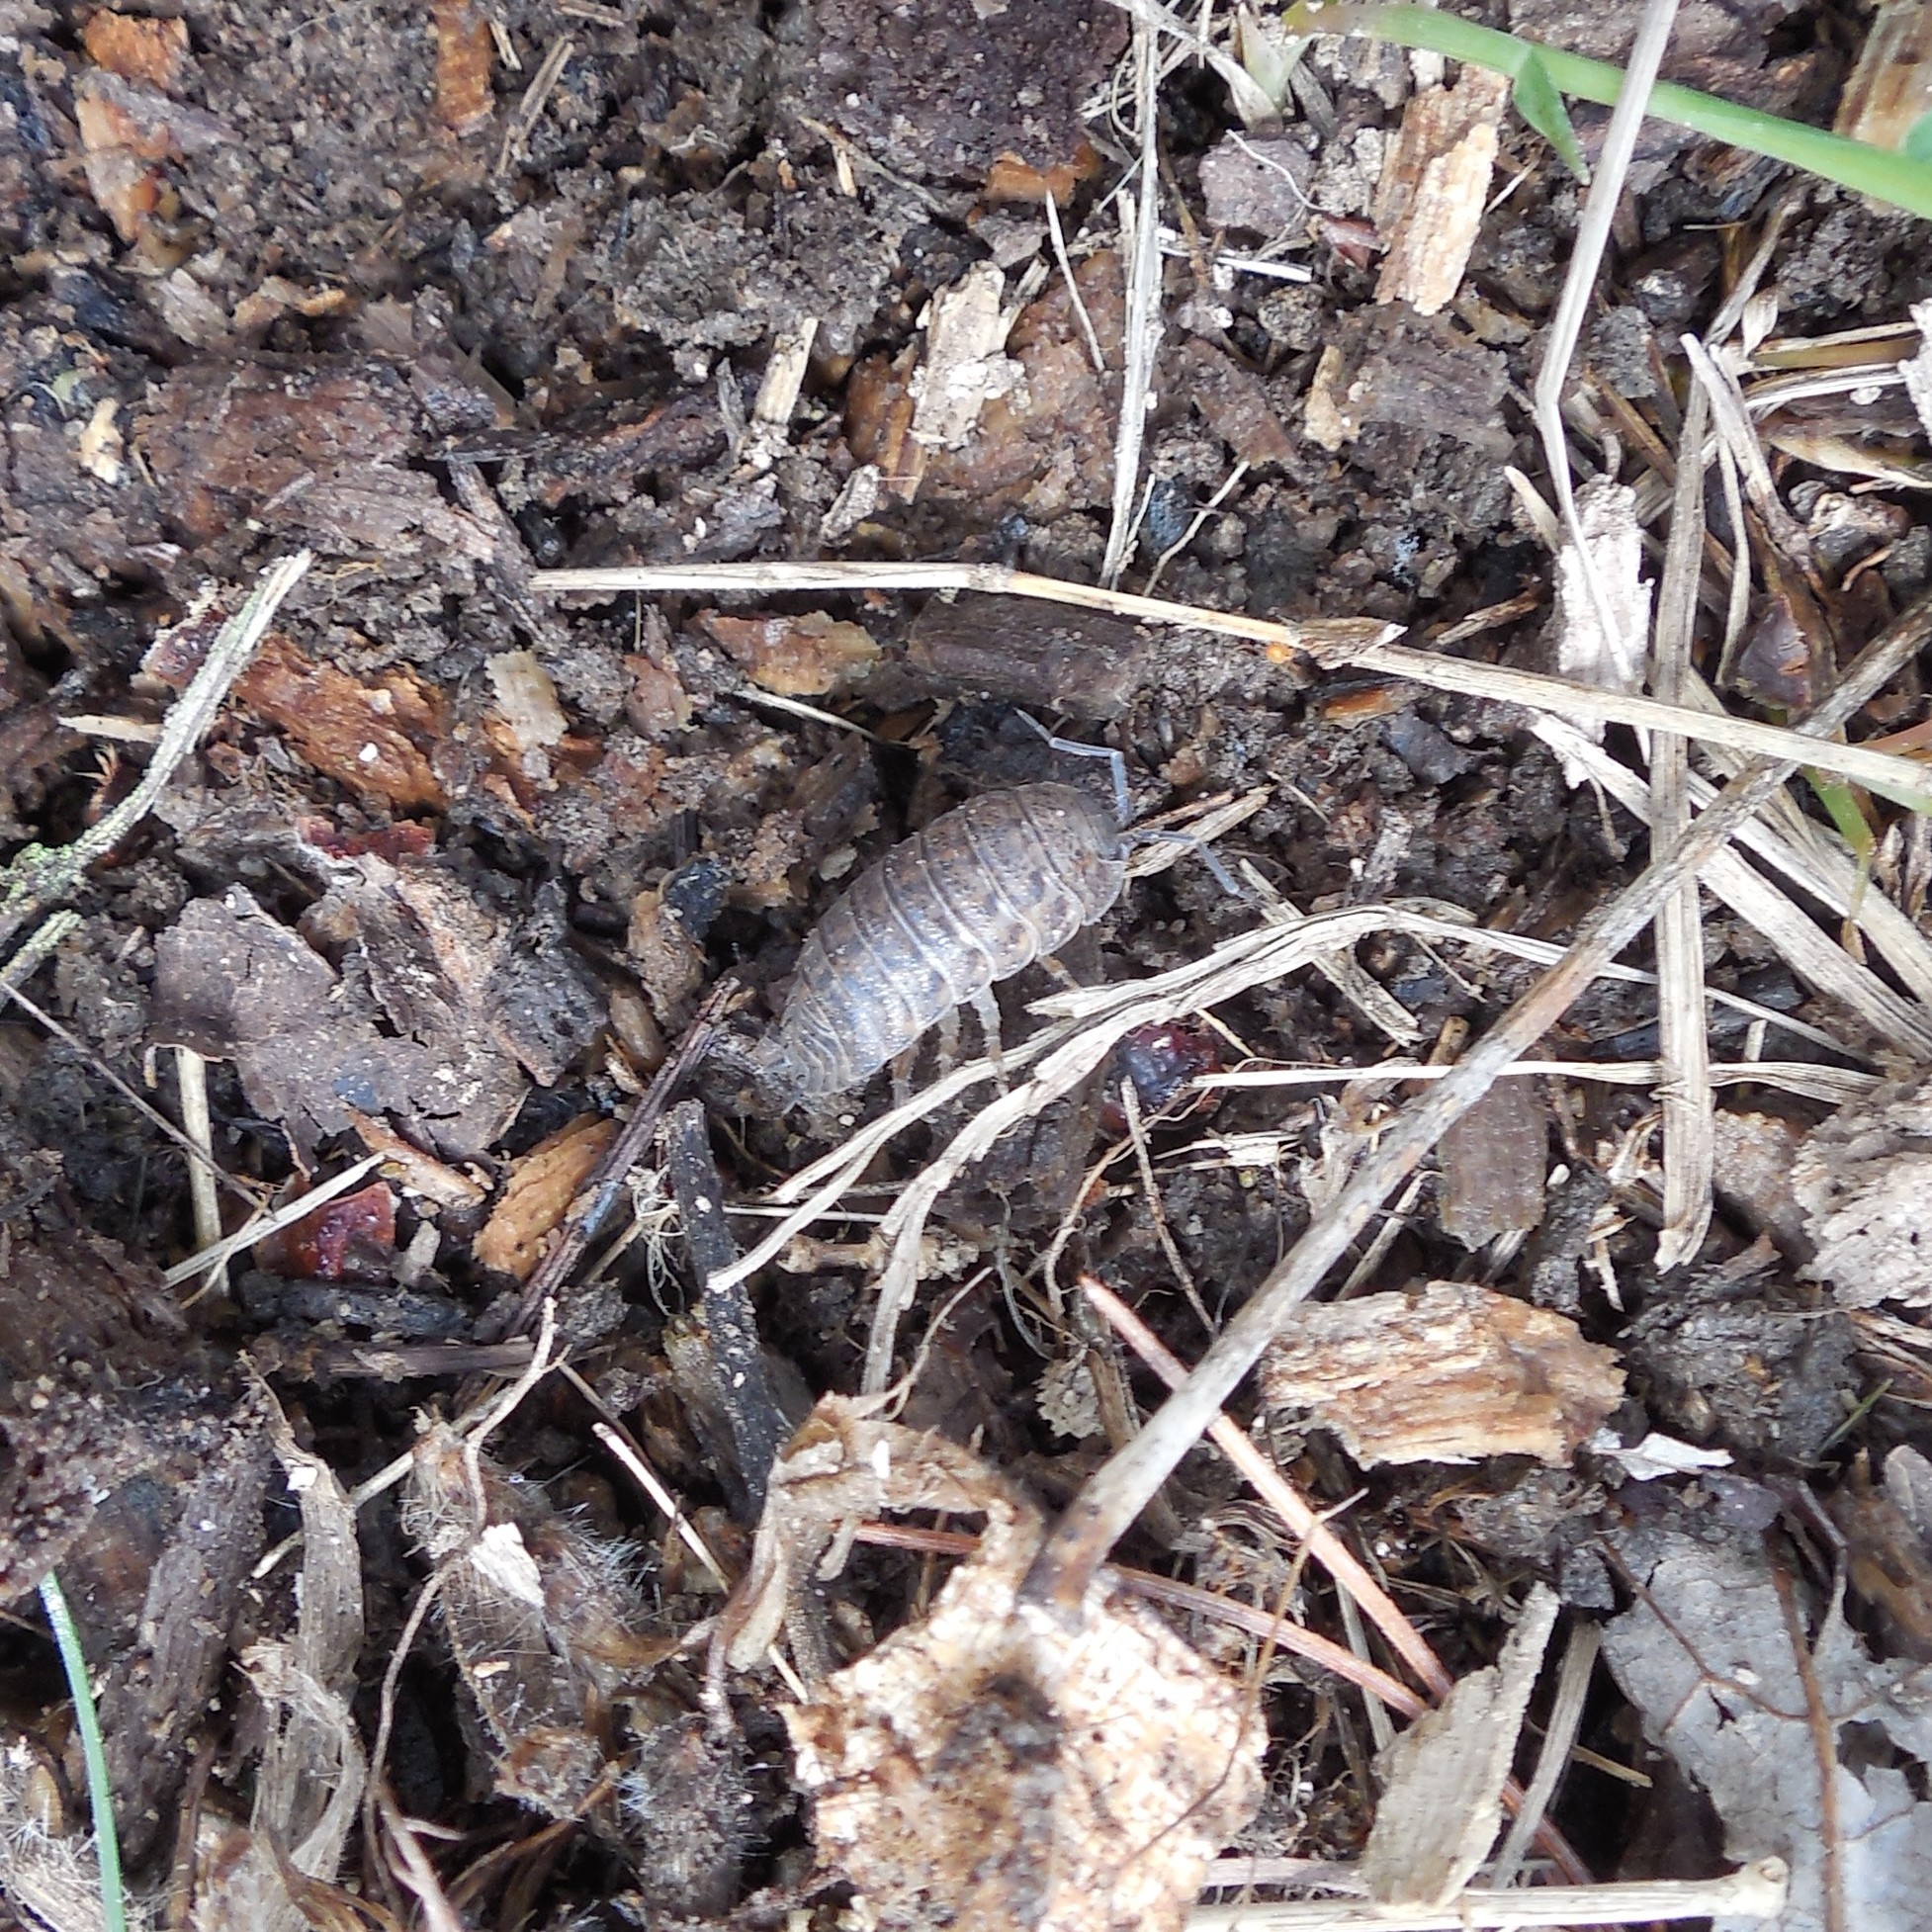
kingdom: Animalia
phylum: Arthropoda
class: Malacostraca
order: Isopoda
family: Trachelipodidae
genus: Trachelipus
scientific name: Trachelipus rathkii
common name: Isopod
